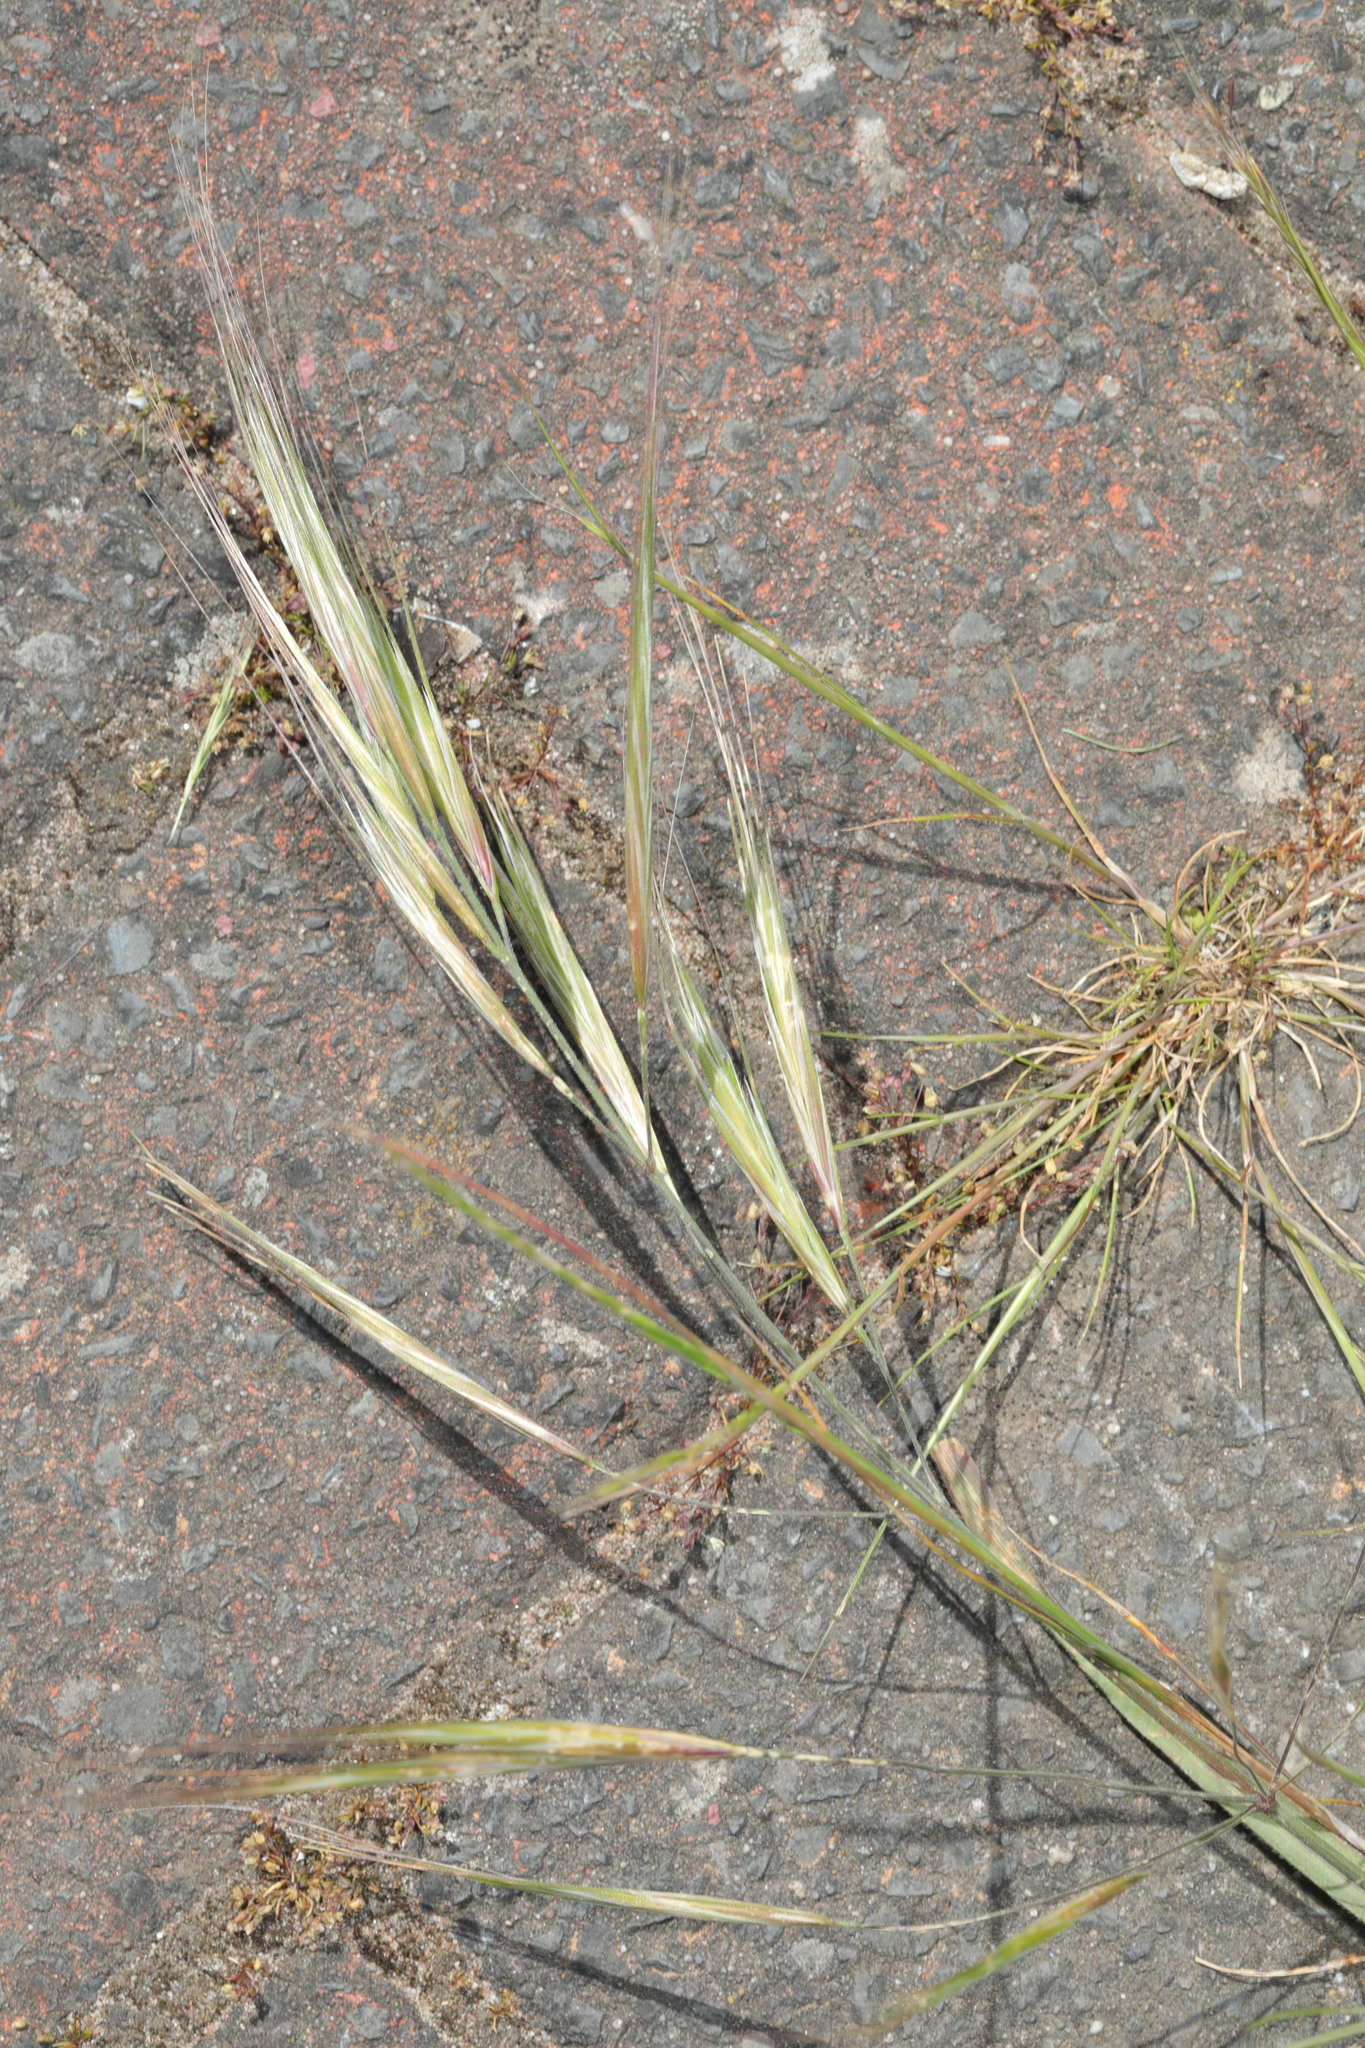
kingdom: Plantae
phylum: Tracheophyta
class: Liliopsida
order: Poales
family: Poaceae
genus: Bromus
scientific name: Bromus sterilis
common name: Poverty brome
